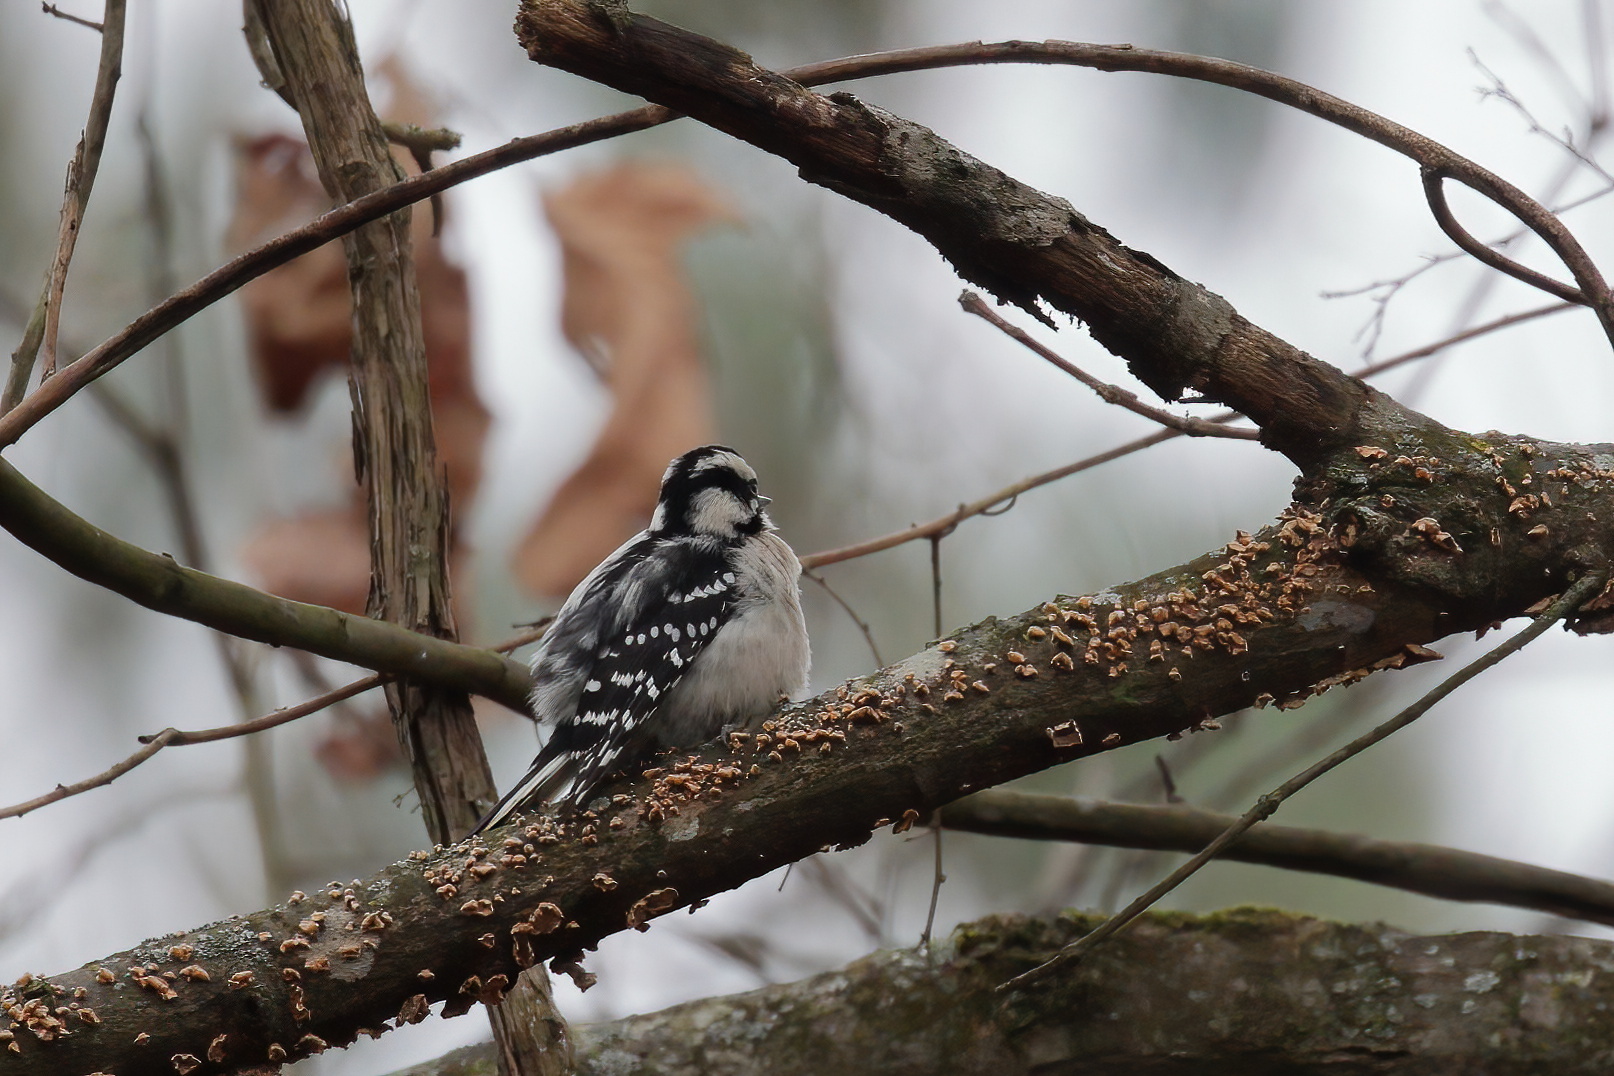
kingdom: Animalia
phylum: Chordata
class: Aves
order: Piciformes
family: Picidae
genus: Dryobates
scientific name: Dryobates pubescens
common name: Downy woodpecker
